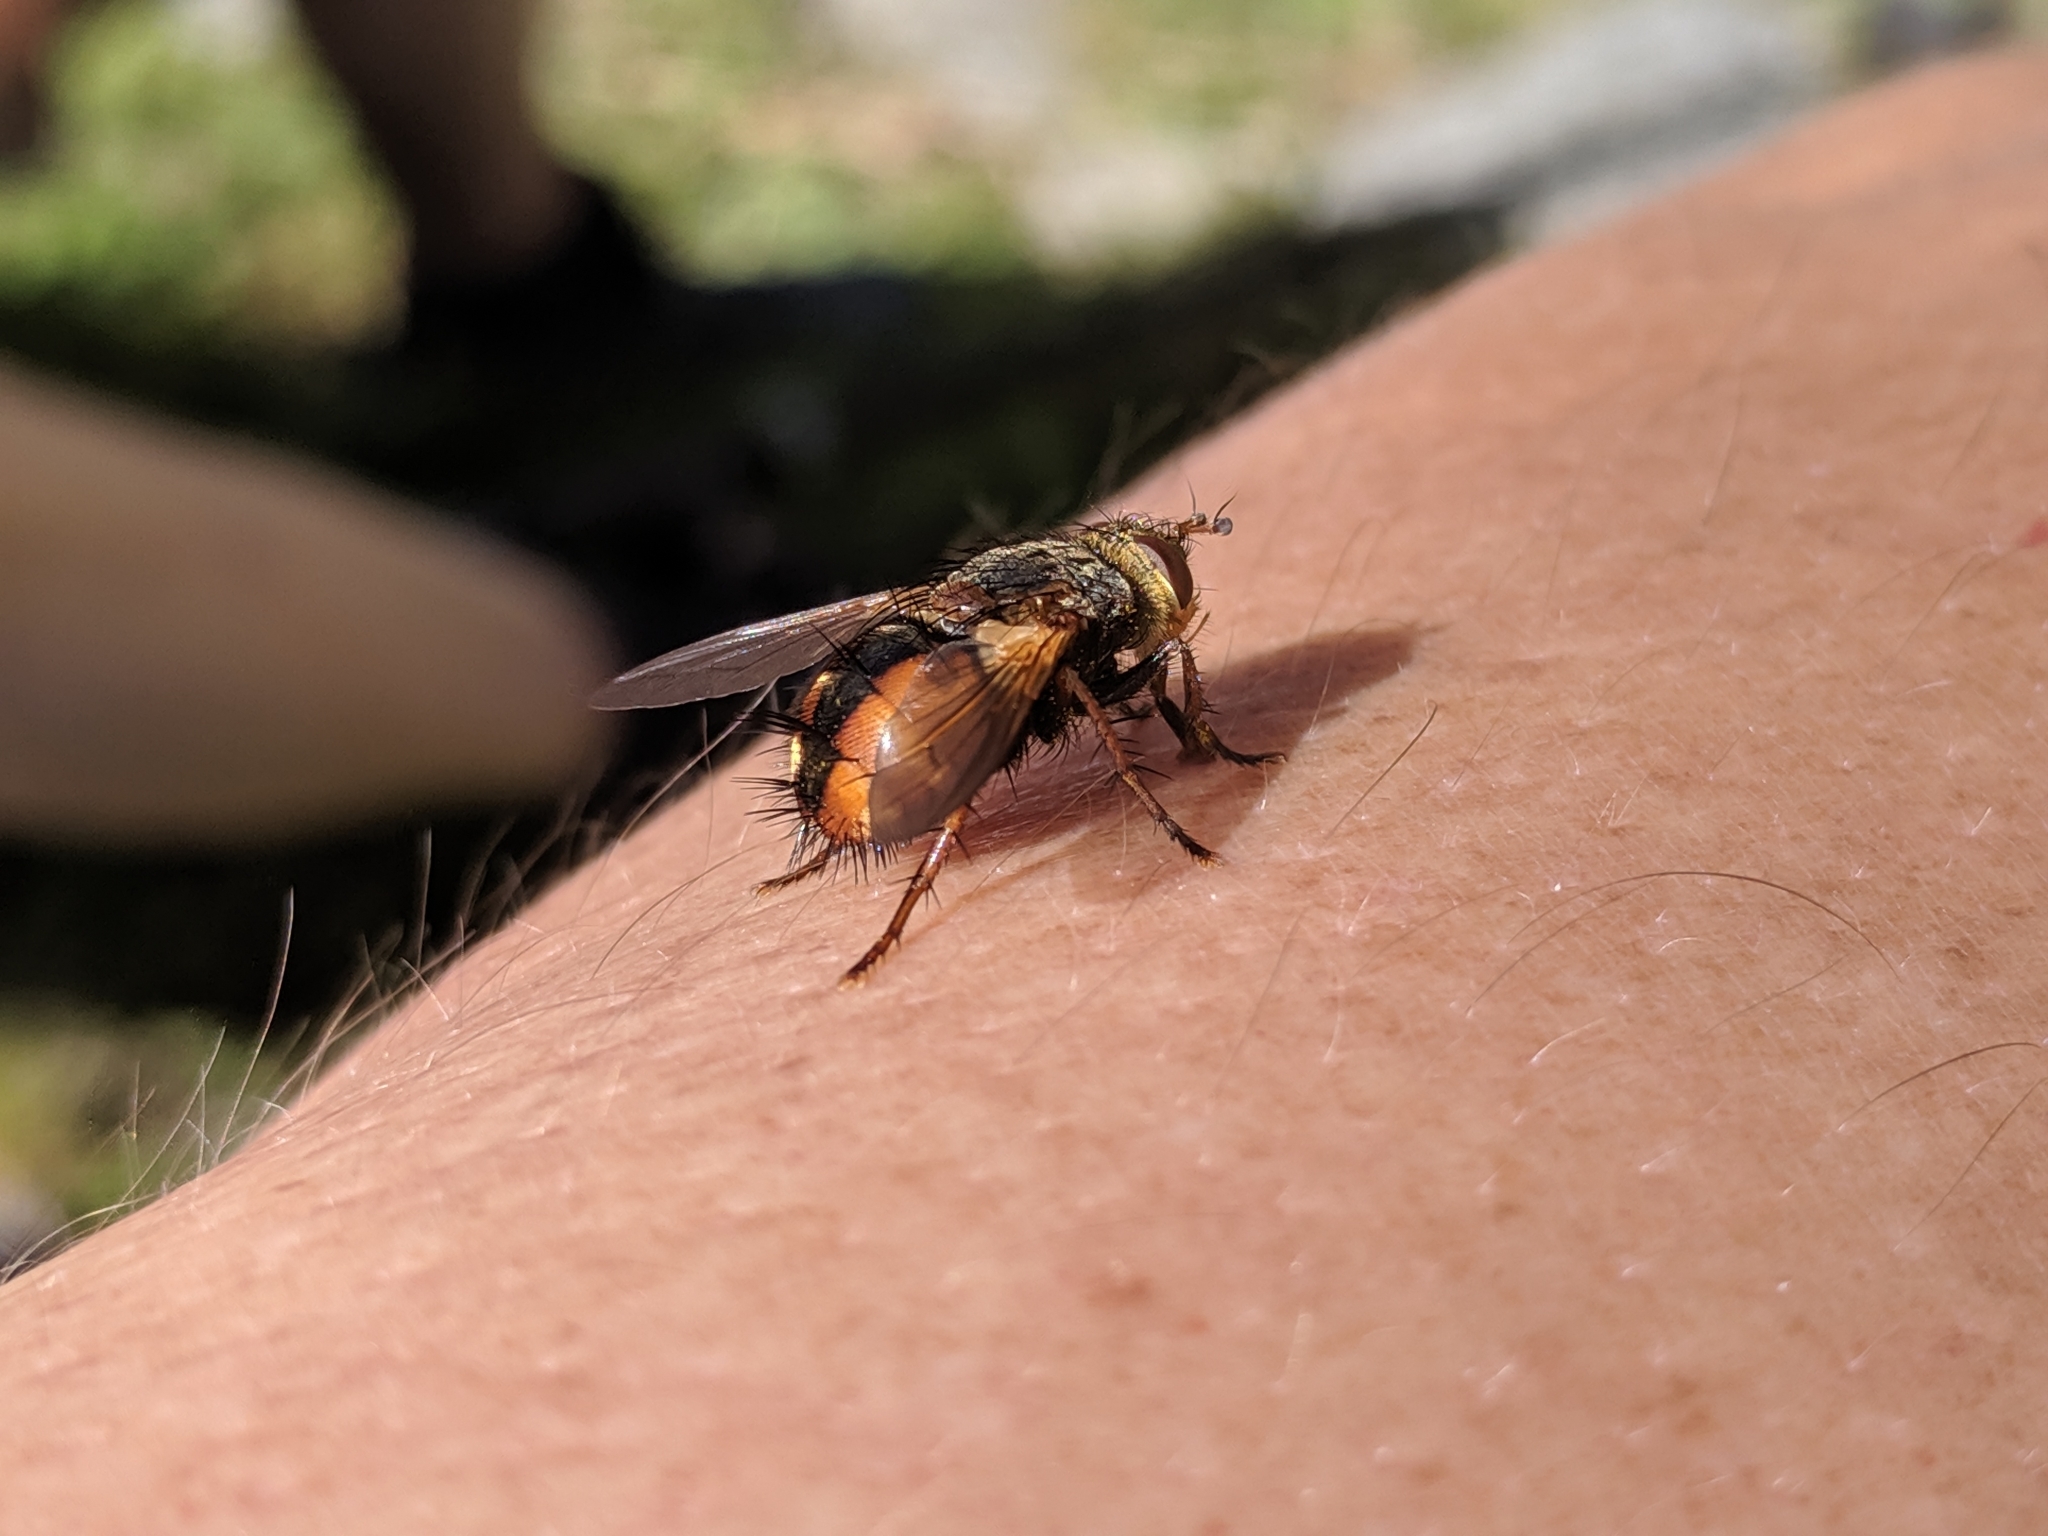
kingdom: Animalia
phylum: Arthropoda
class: Insecta
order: Diptera
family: Tachinidae
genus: Tachina
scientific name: Tachina fera
